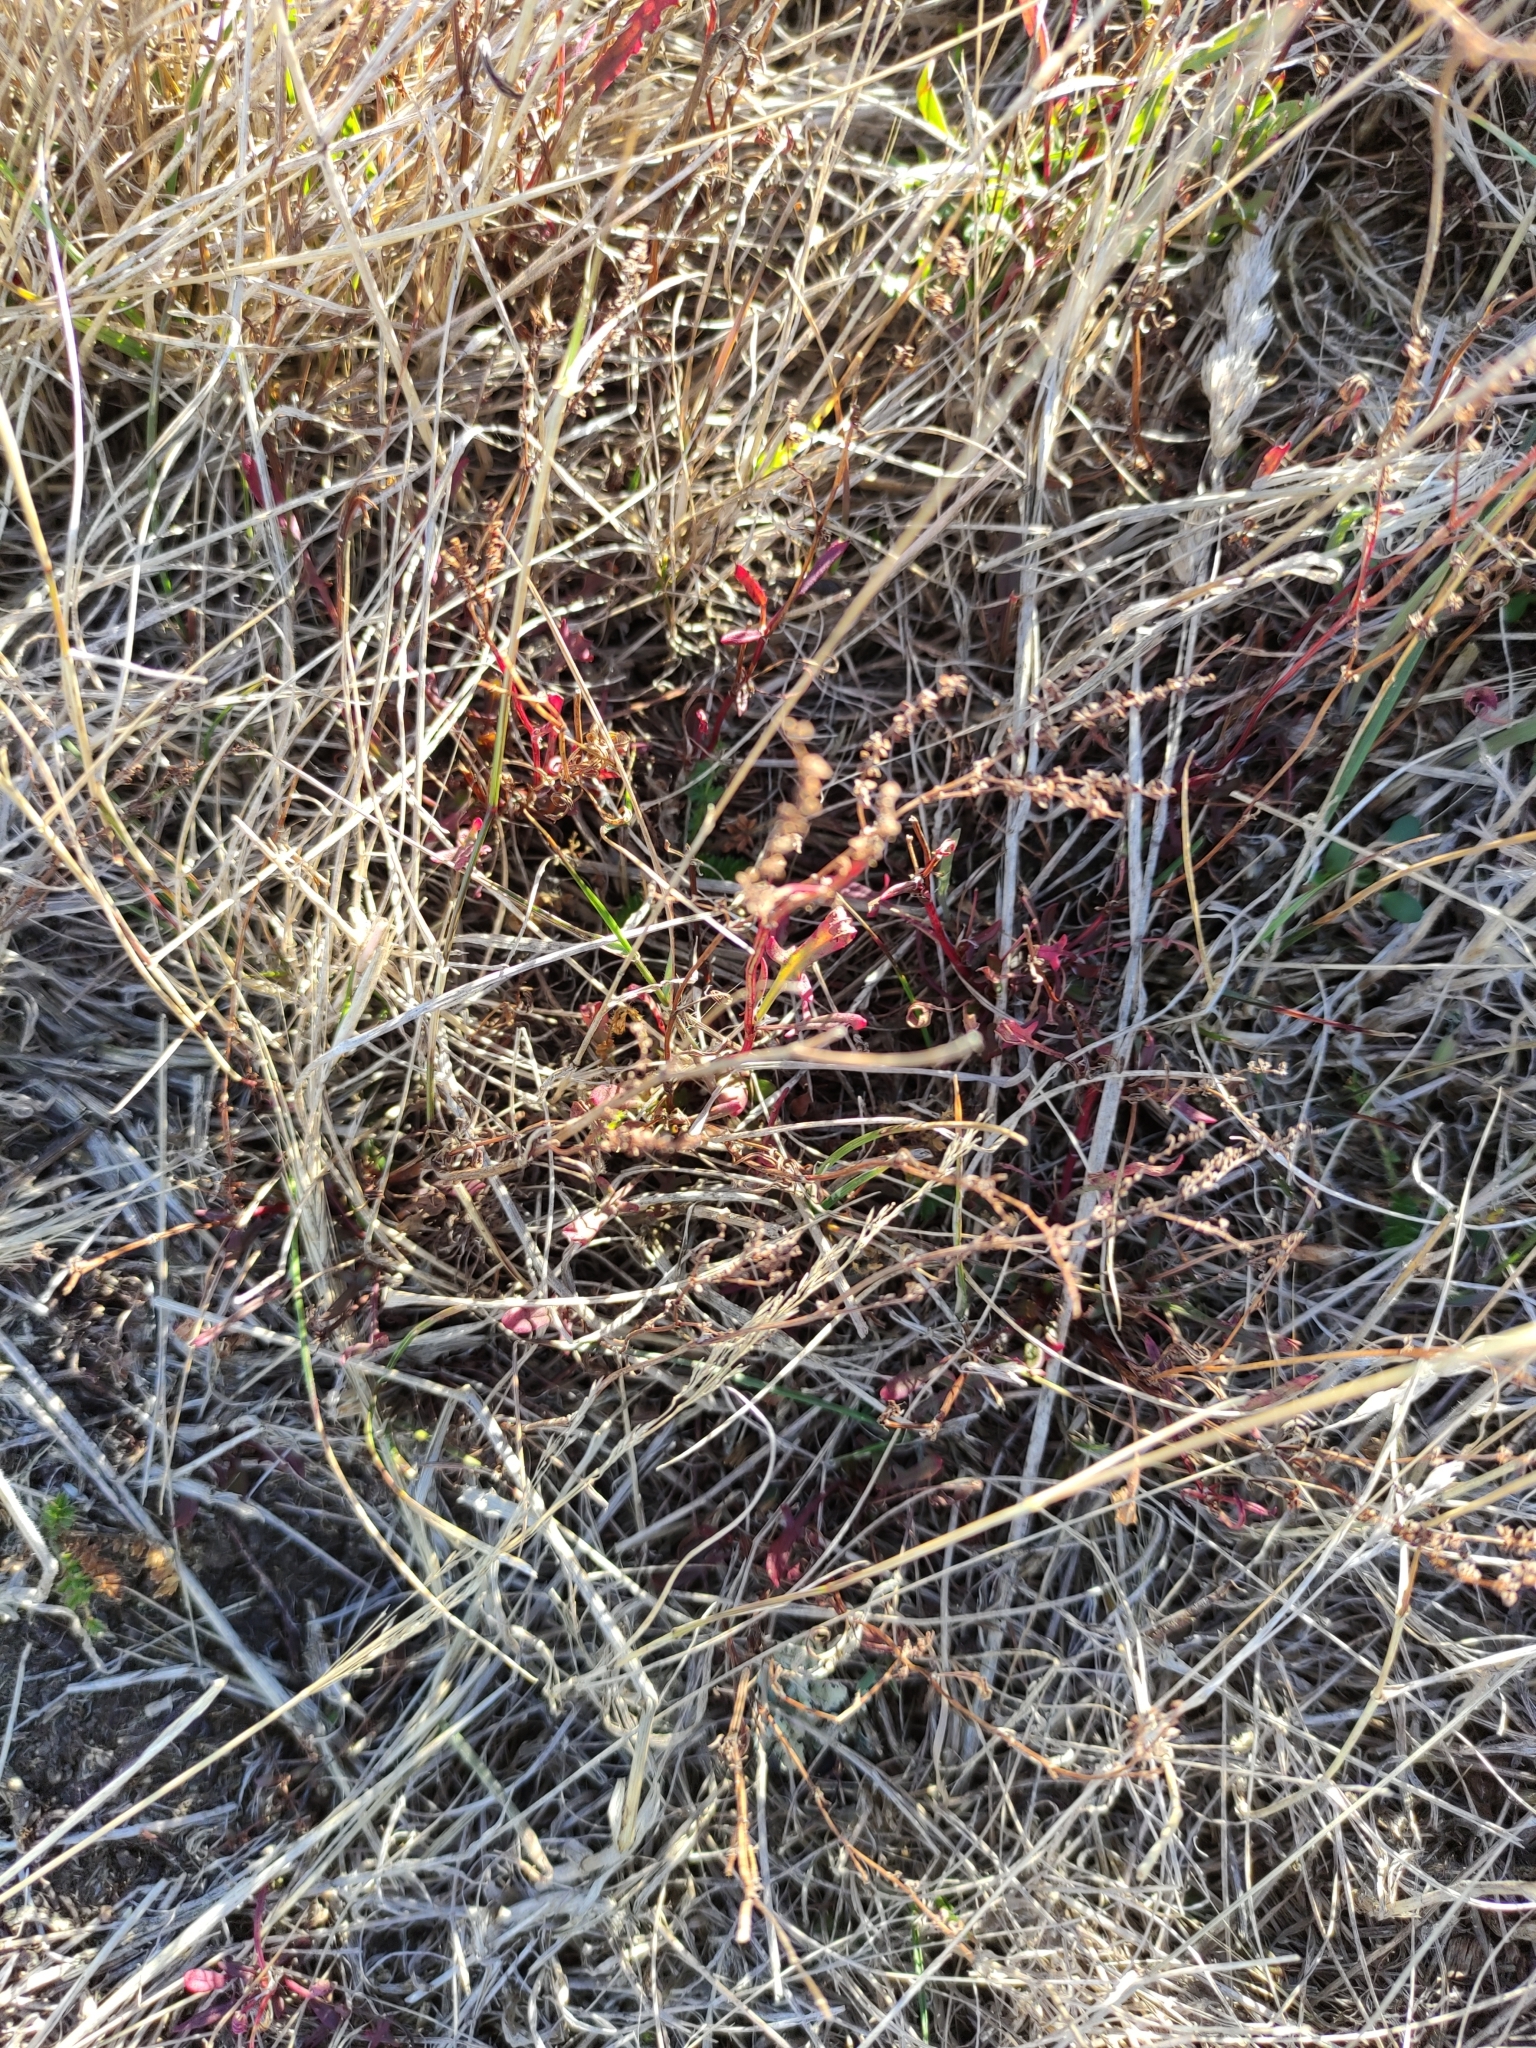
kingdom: Plantae
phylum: Tracheophyta
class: Magnoliopsida
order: Caryophyllales
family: Polygonaceae
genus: Rumex
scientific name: Rumex acetosella
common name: Common sheep sorrel
